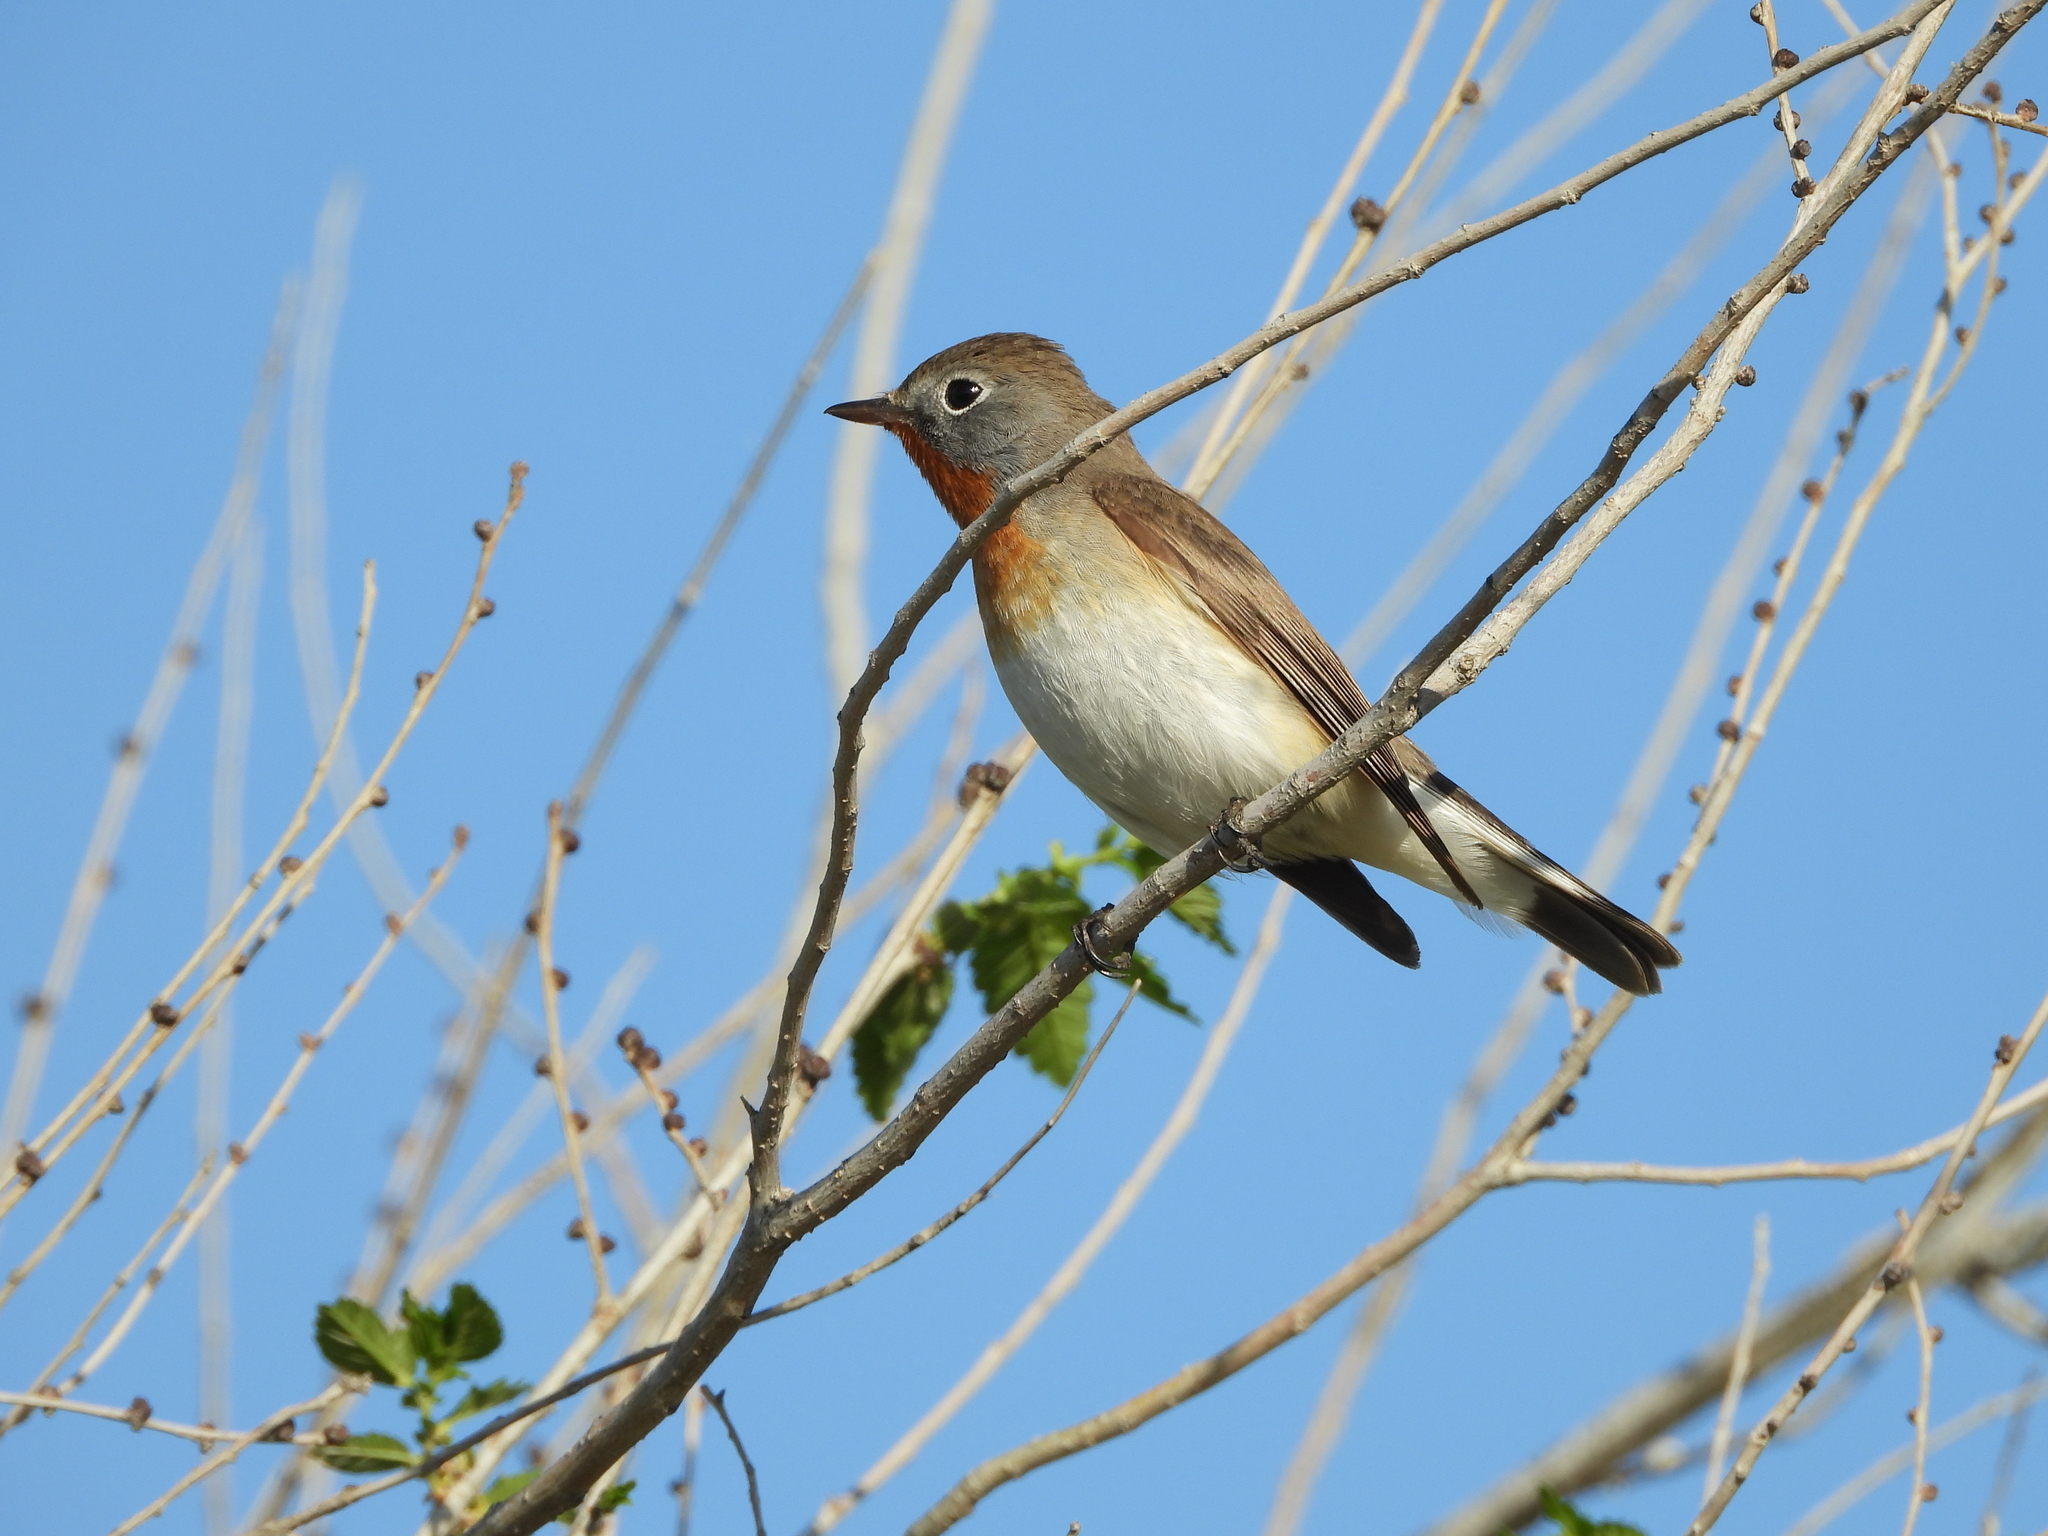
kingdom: Animalia
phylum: Chordata
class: Aves
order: Passeriformes
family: Muscicapidae
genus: Ficedula
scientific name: Ficedula parva
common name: Red-breasted flycatcher
